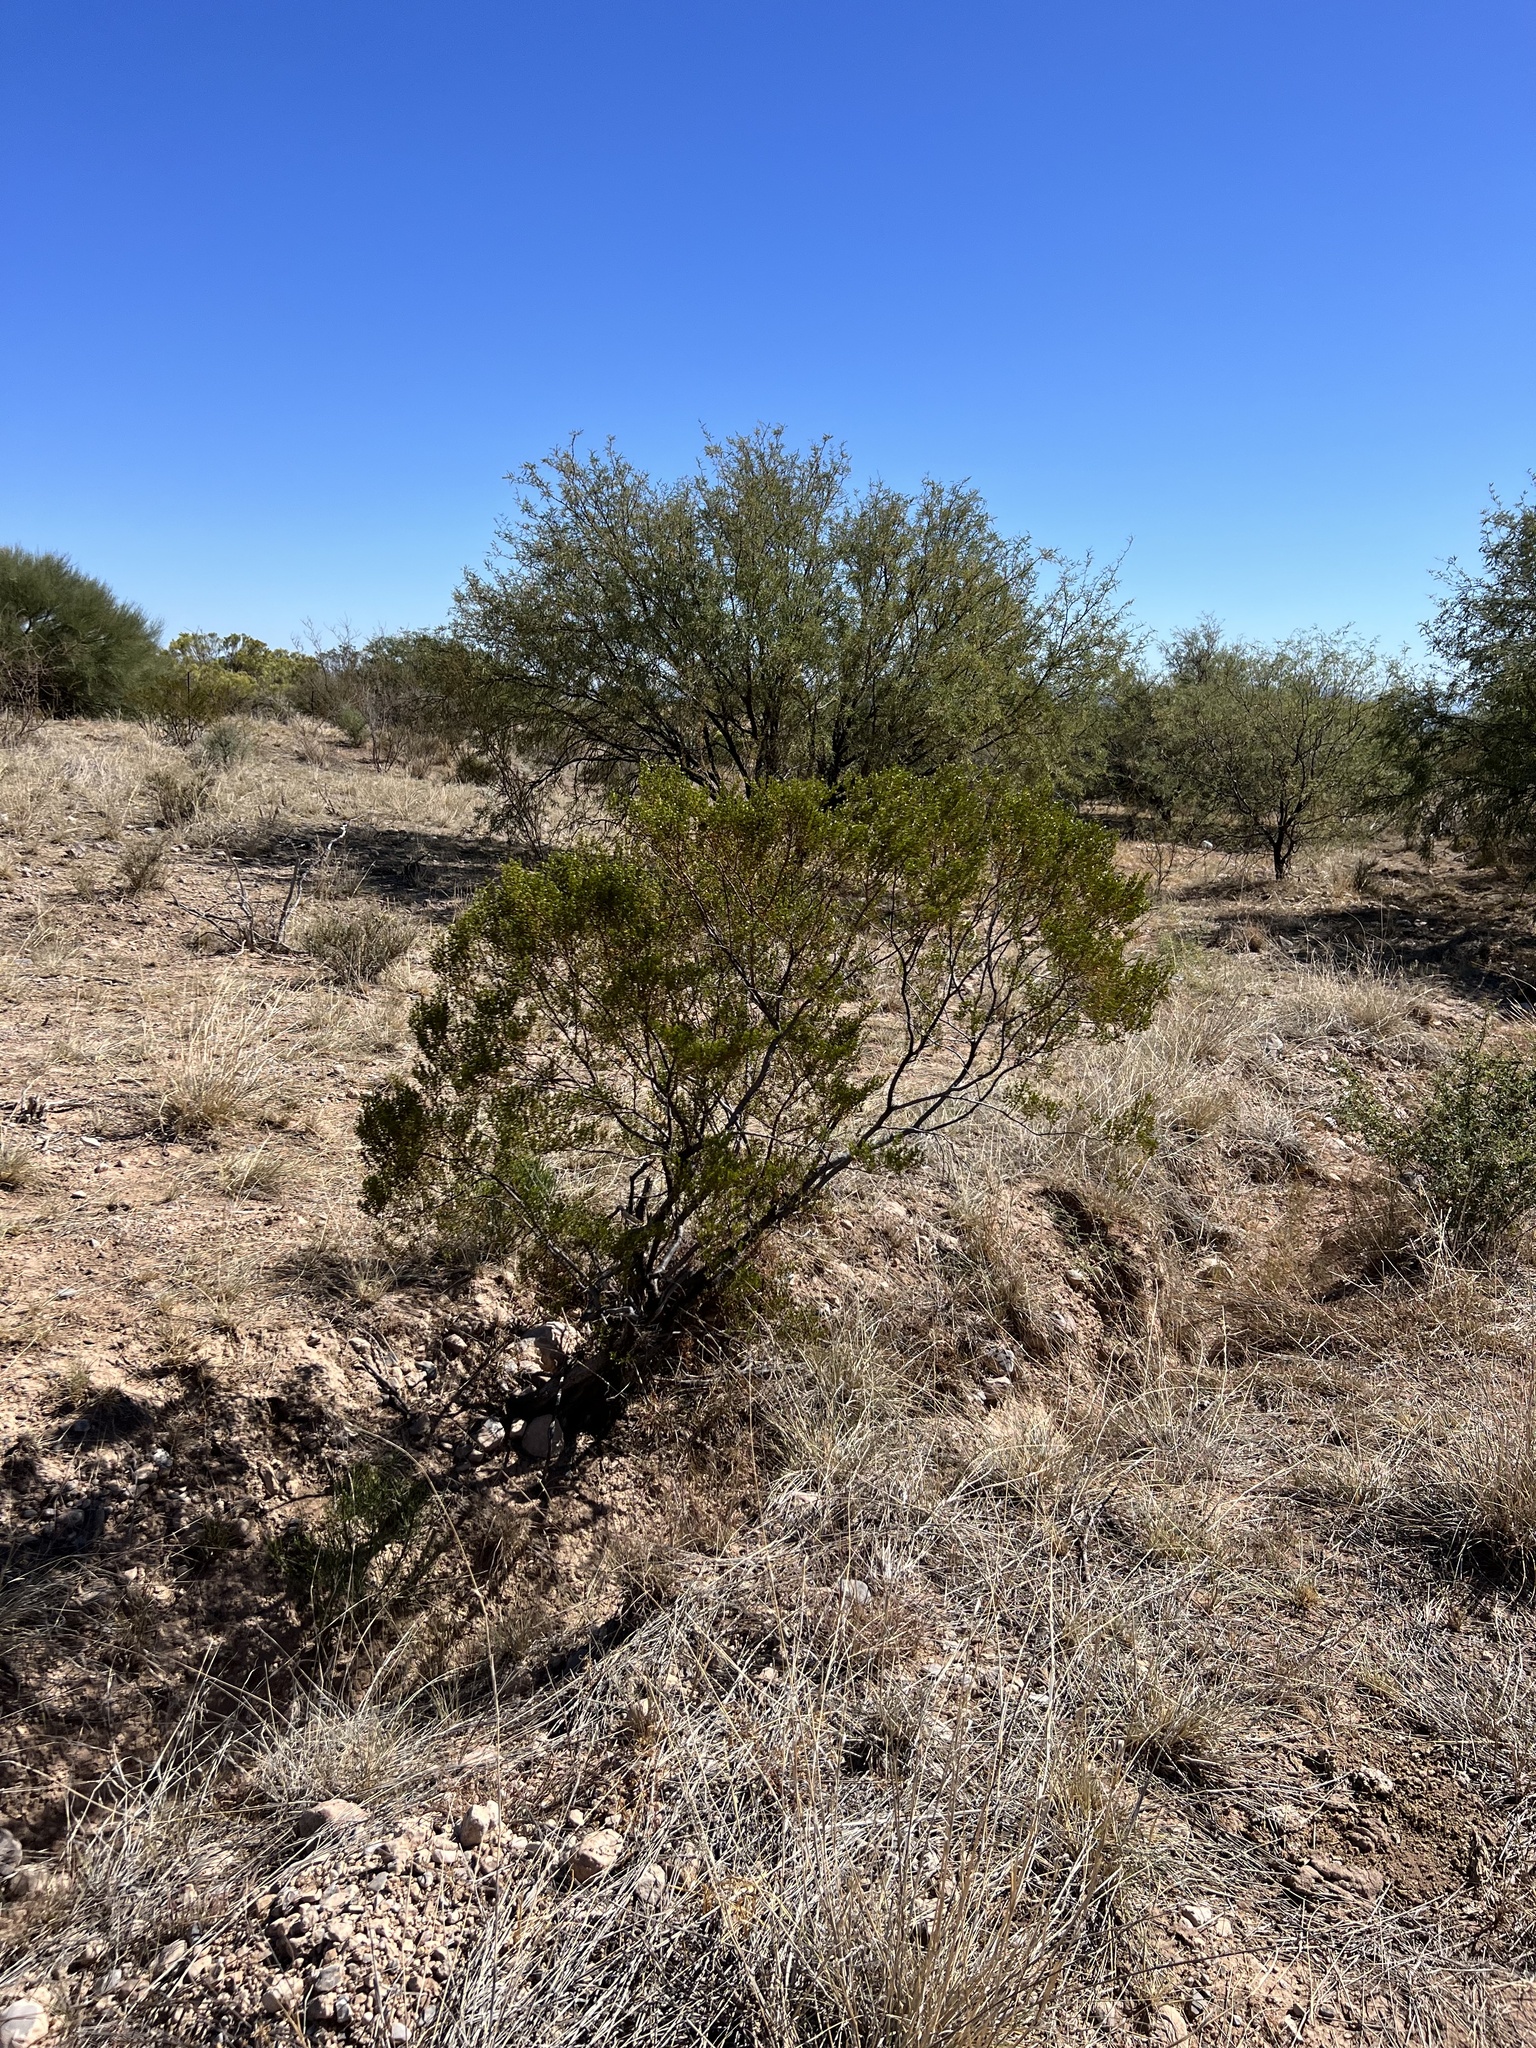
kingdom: Plantae
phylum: Tracheophyta
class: Magnoliopsida
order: Zygophyllales
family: Zygophyllaceae
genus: Larrea
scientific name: Larrea tridentata
